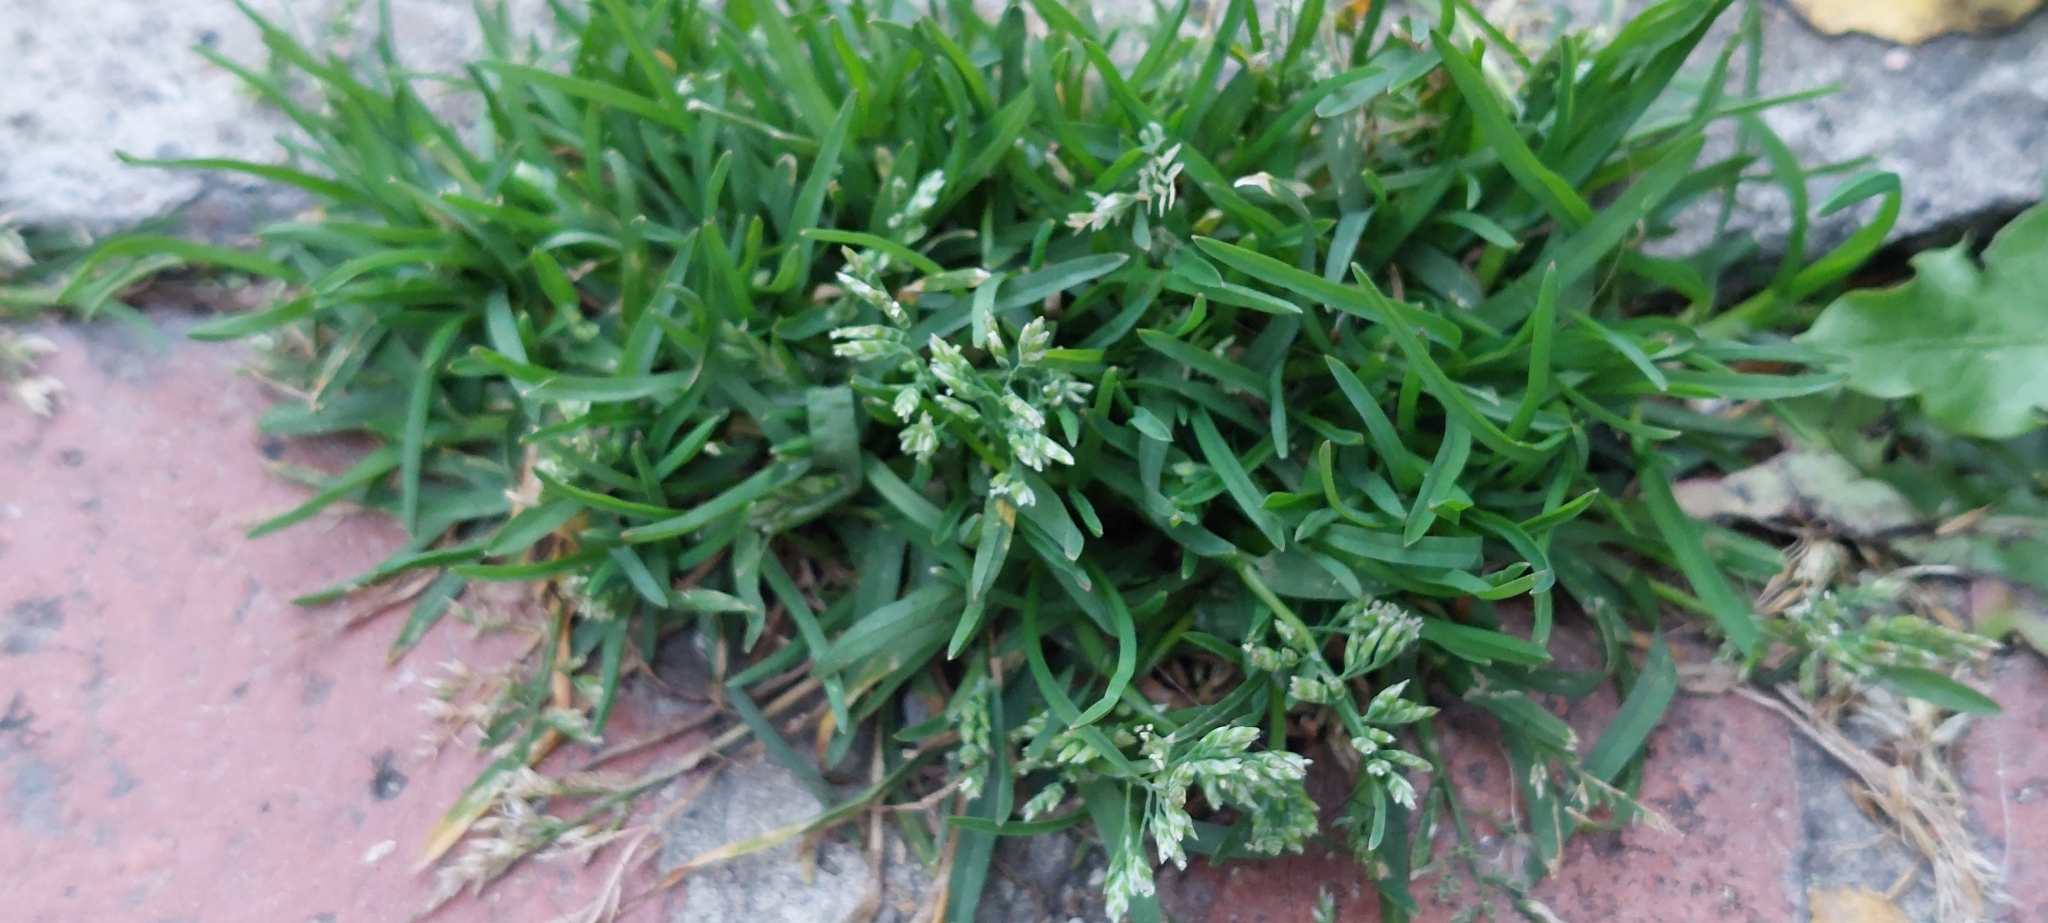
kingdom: Plantae
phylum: Tracheophyta
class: Liliopsida
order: Poales
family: Poaceae
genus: Poa
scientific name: Poa annua
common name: Annual bluegrass
